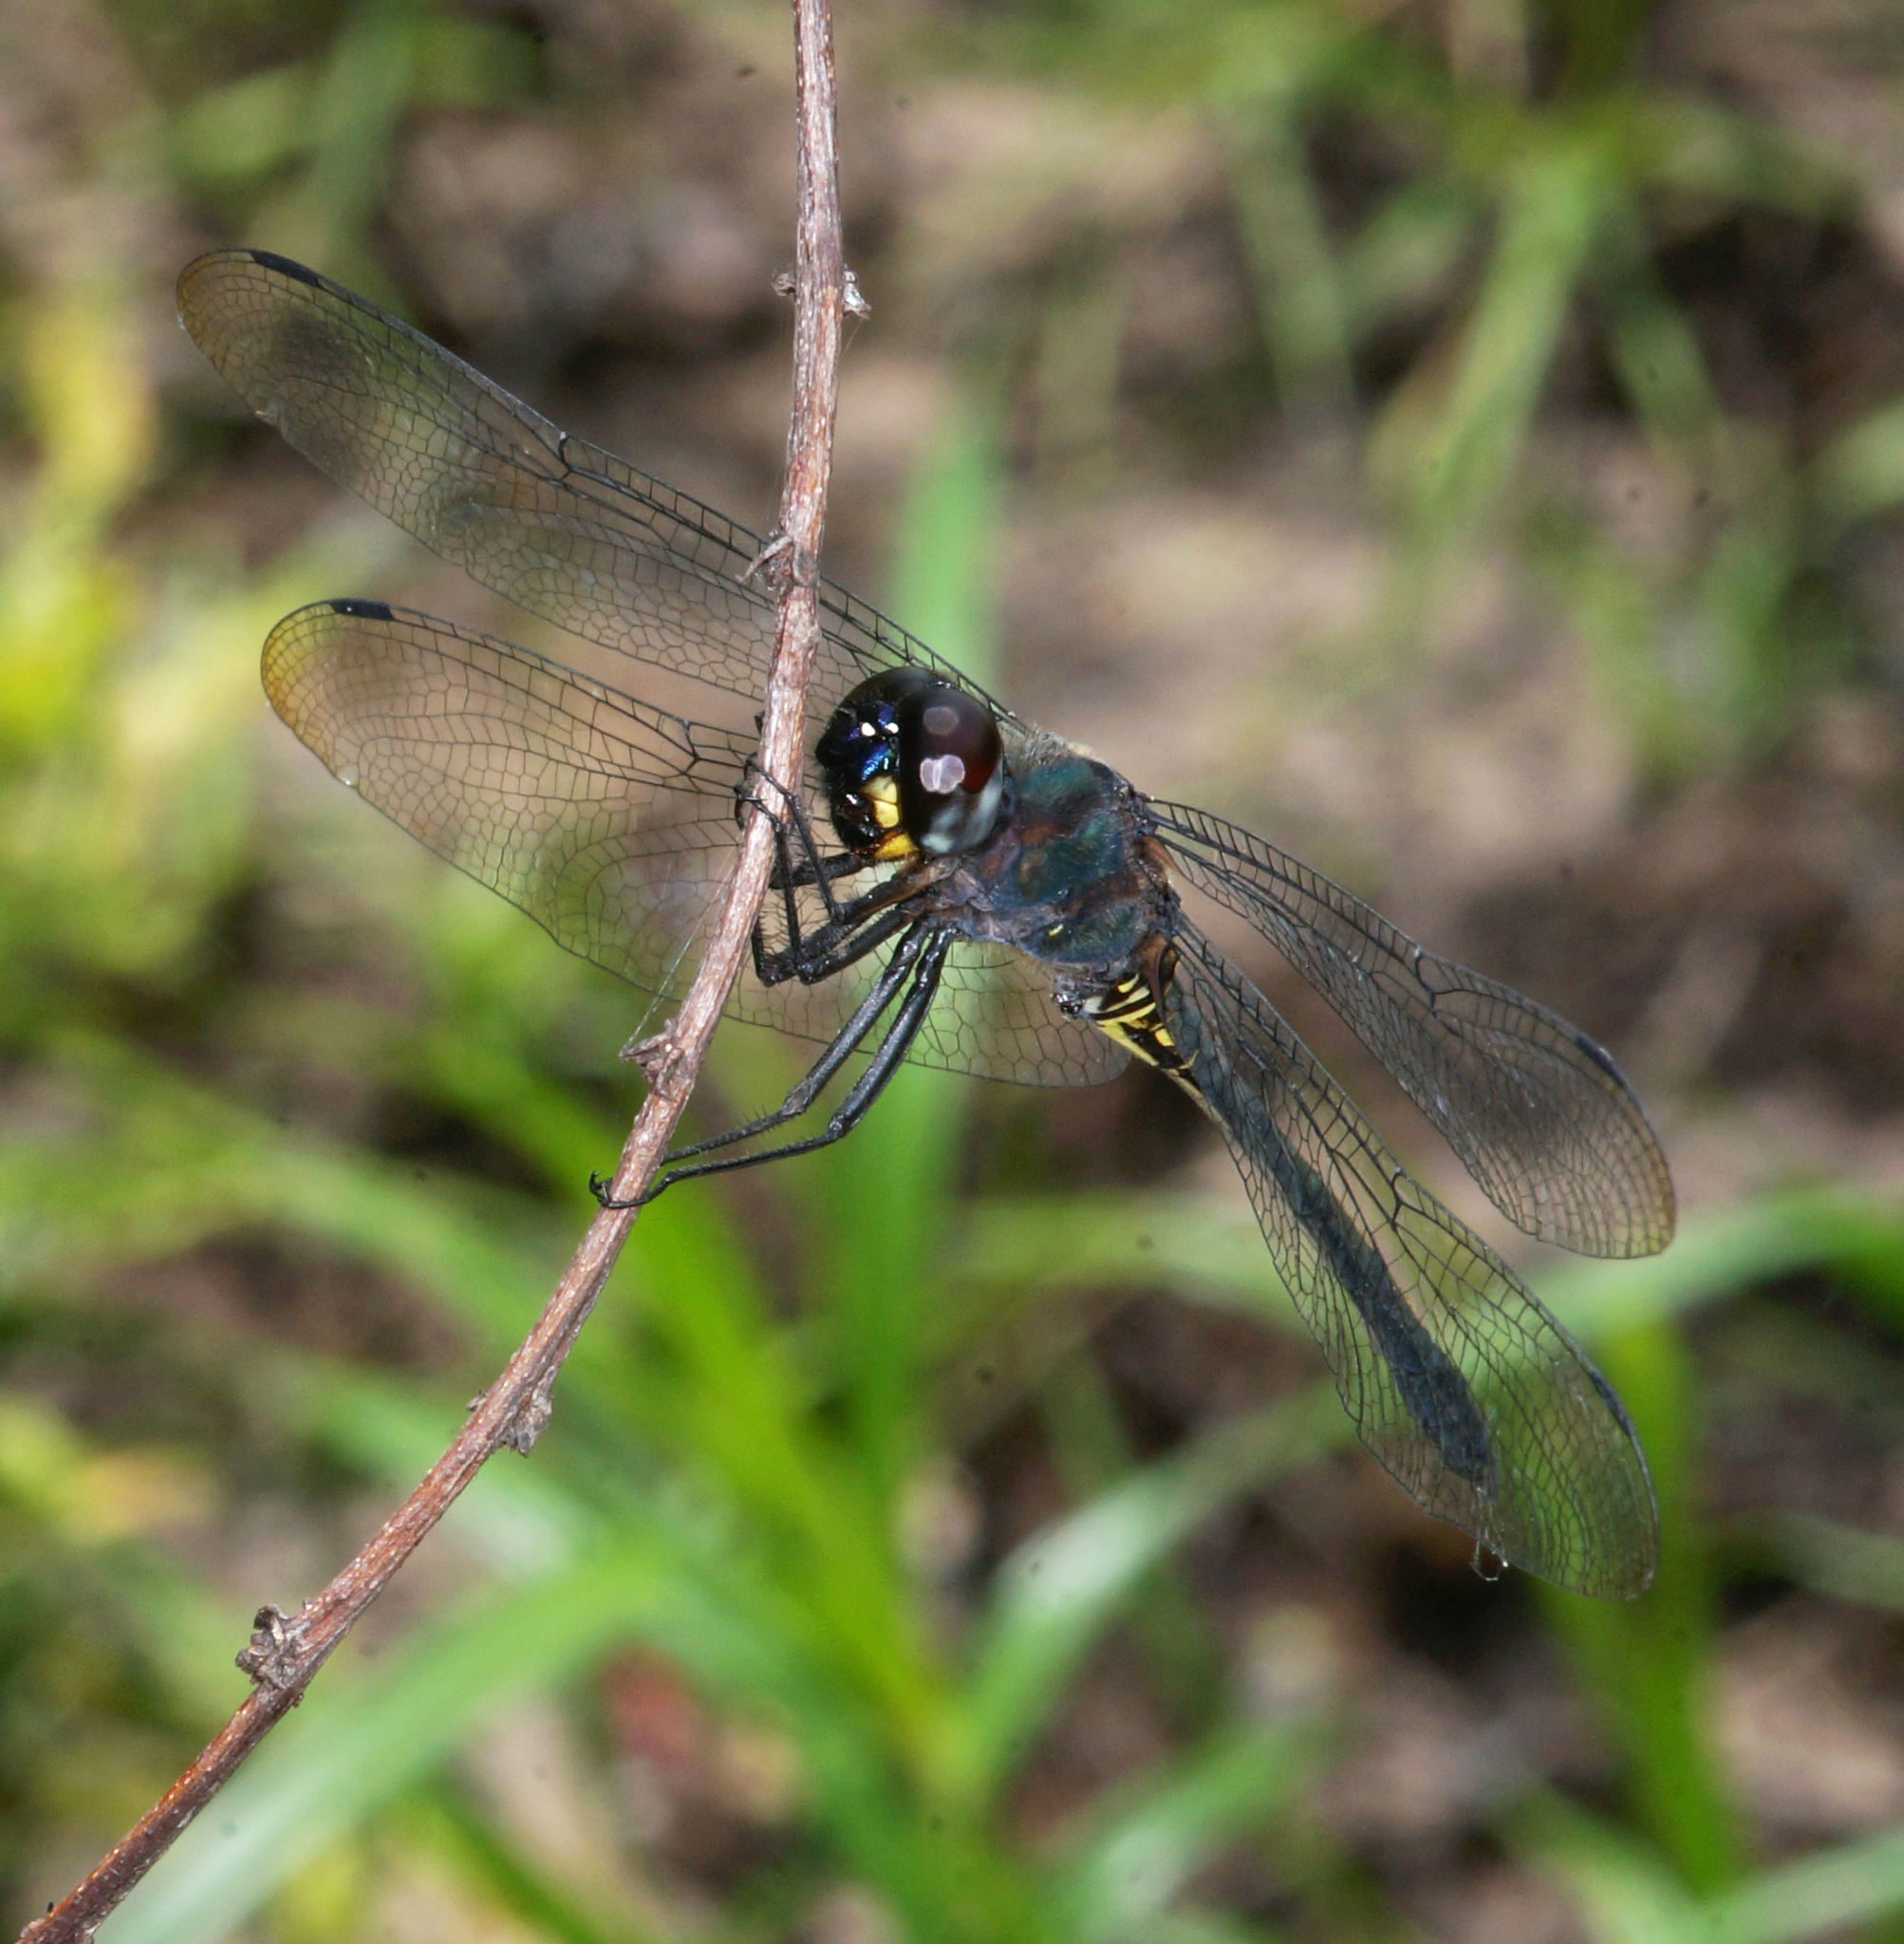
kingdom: Animalia
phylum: Arthropoda
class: Insecta
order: Odonata
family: Libellulidae
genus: Zygonyx
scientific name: Zygonyx iris
